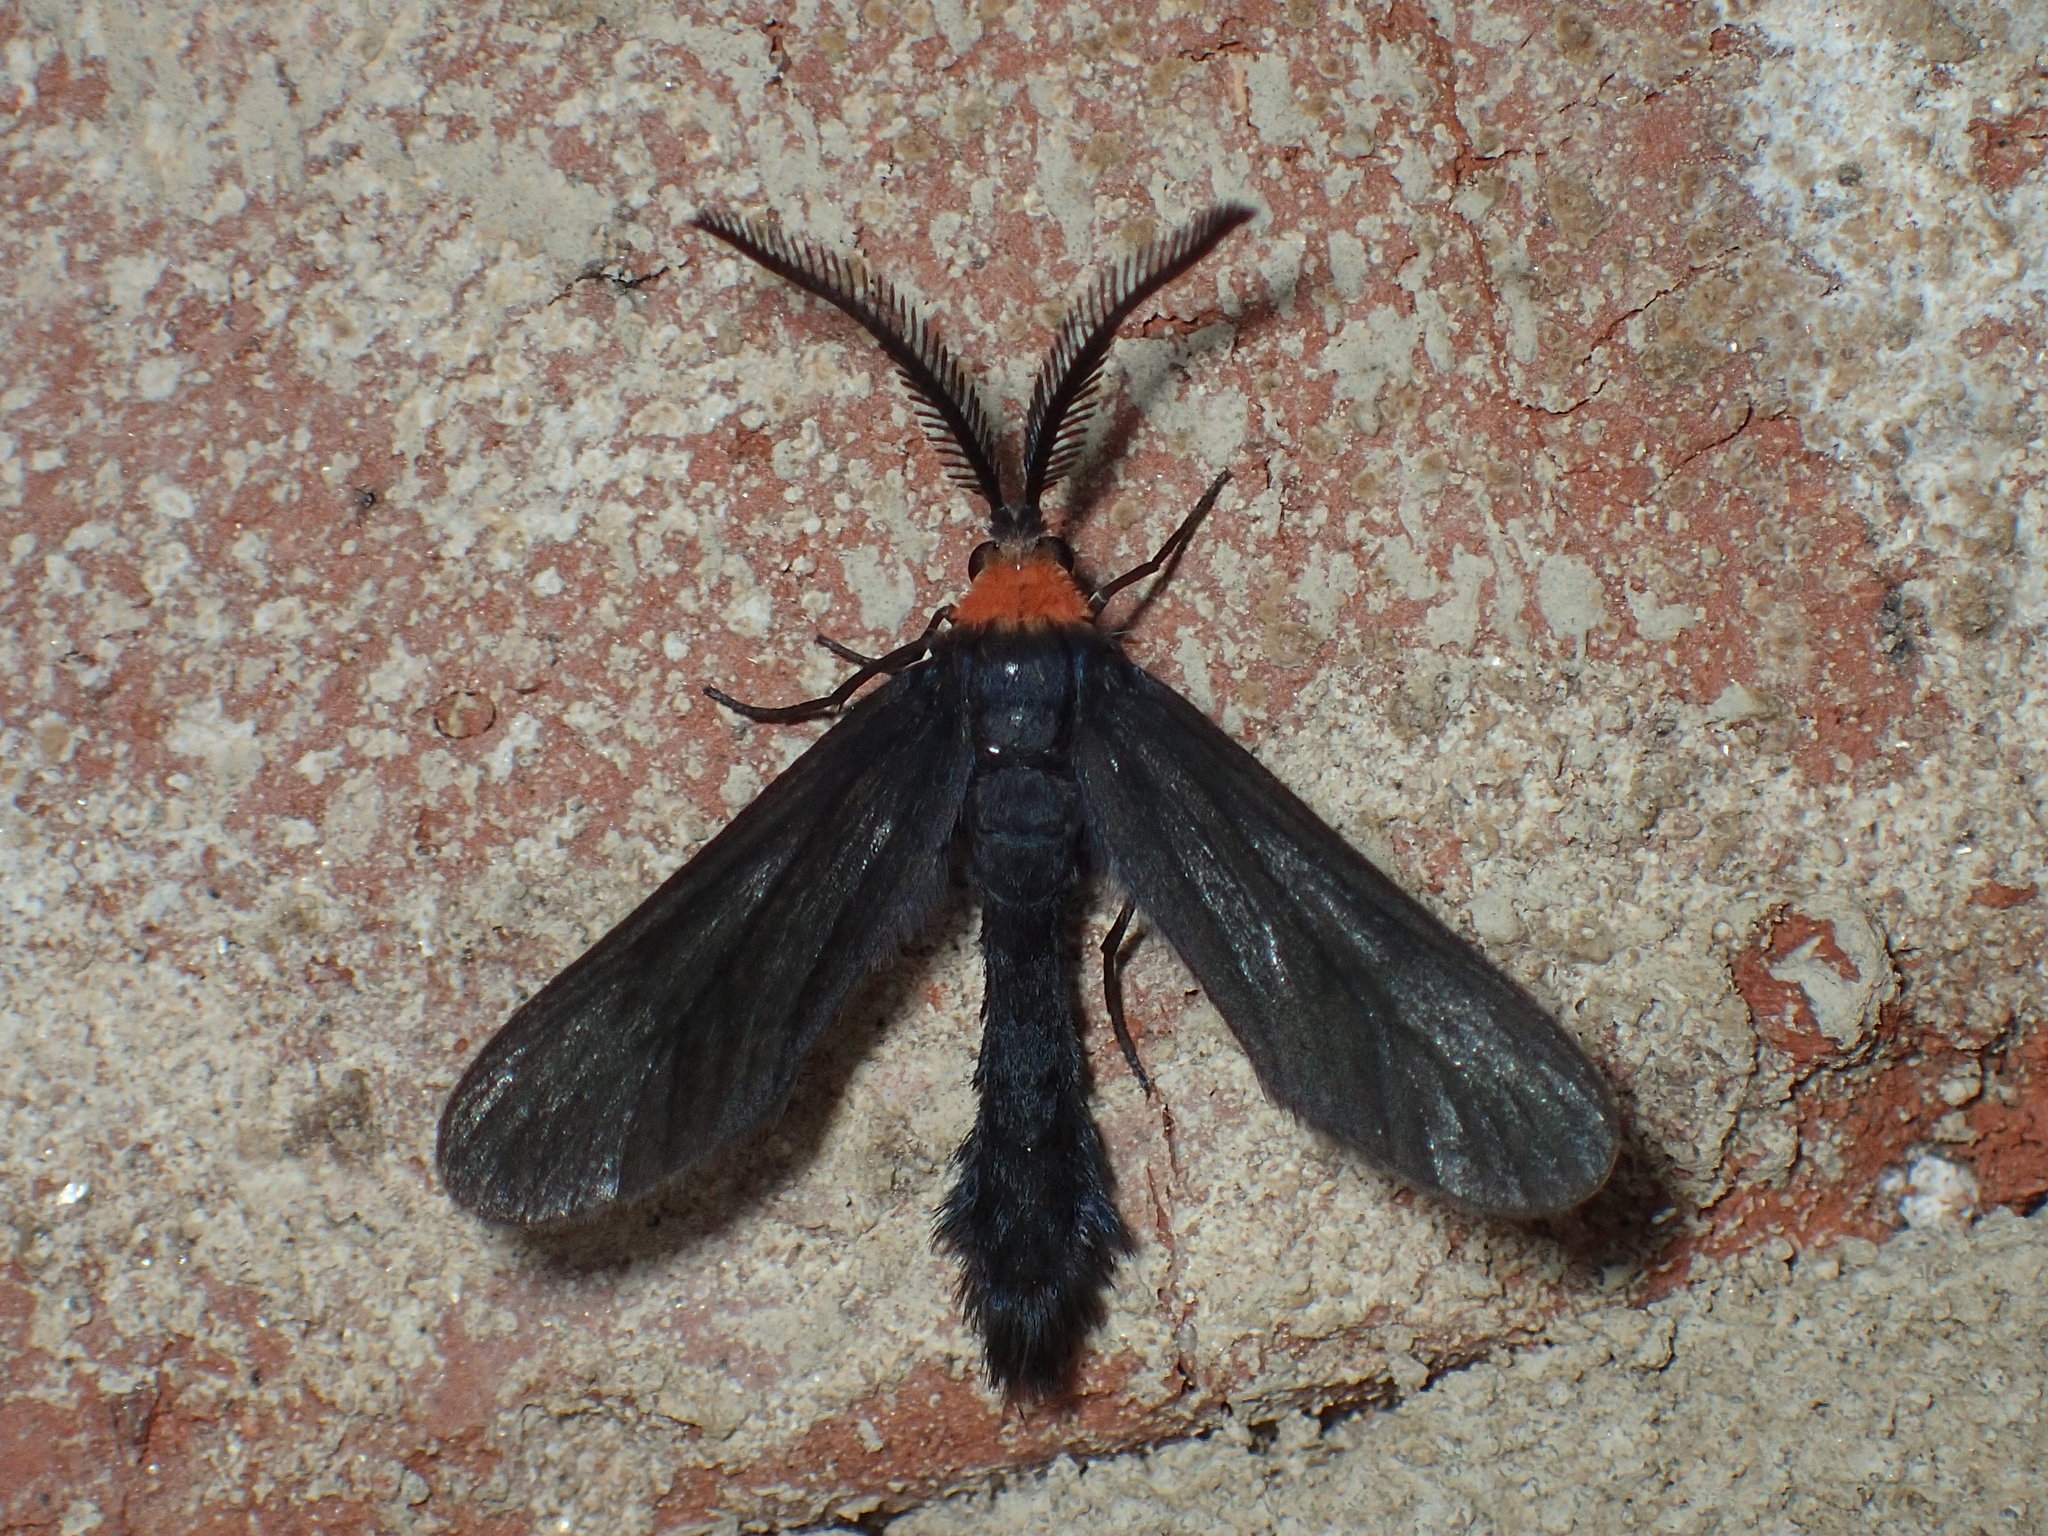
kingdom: Animalia
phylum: Arthropoda
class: Insecta
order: Lepidoptera
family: Zygaenidae
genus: Harrisina
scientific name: Harrisina americana
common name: Grapeleaf skeletonizer moth
